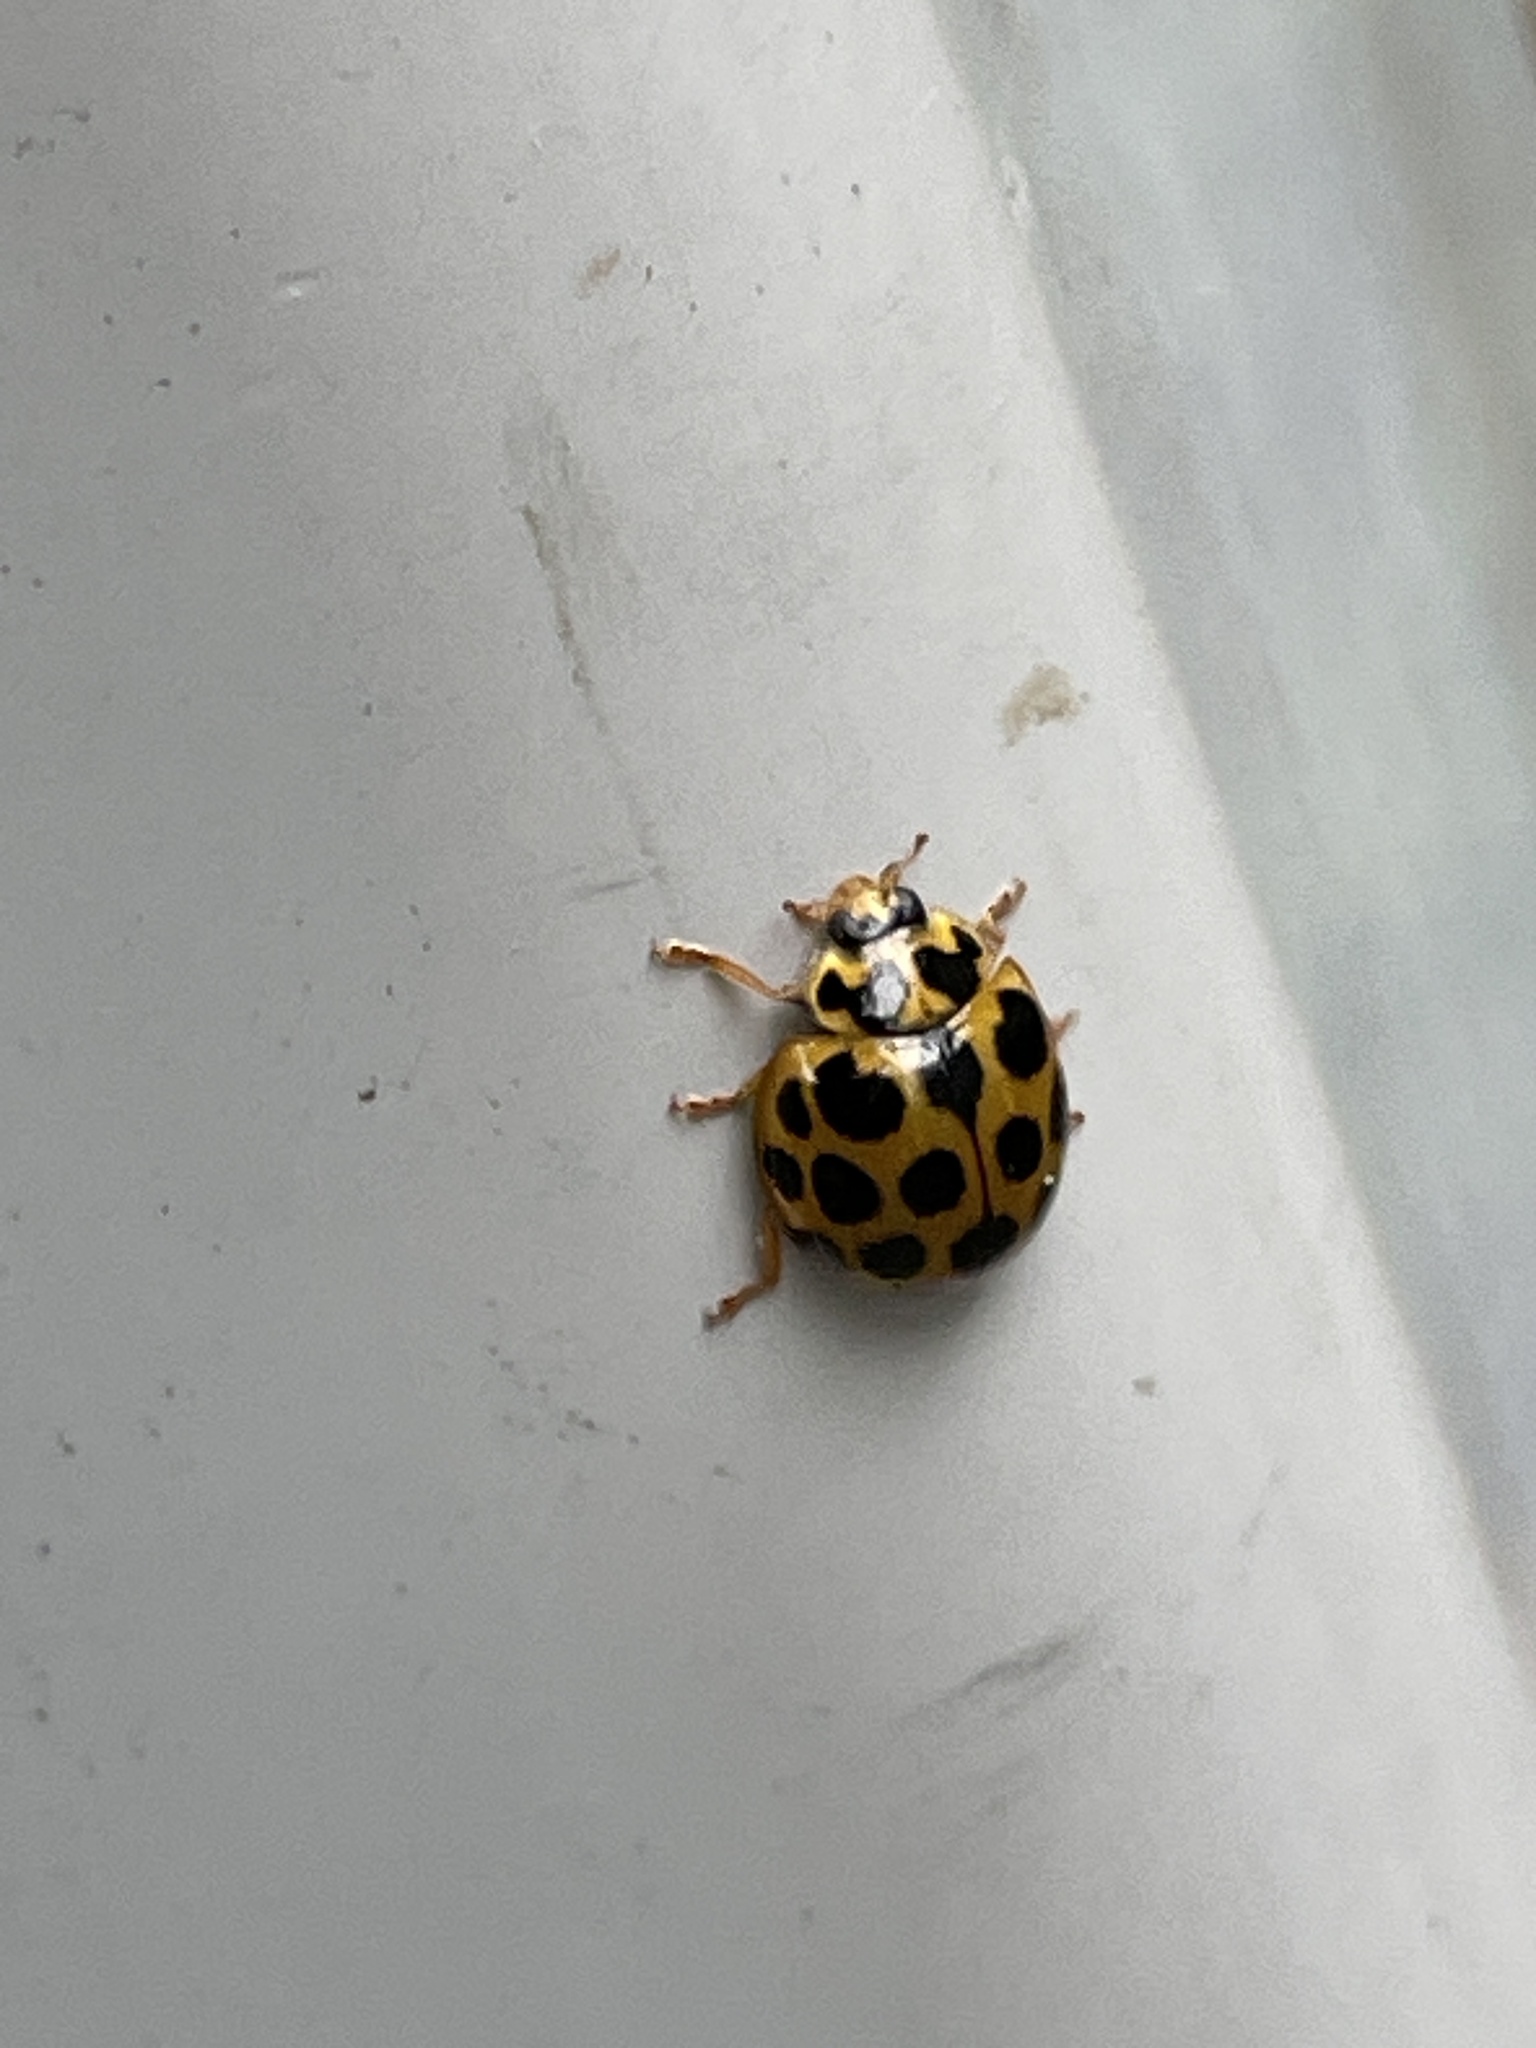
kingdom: Animalia
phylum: Arthropoda
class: Insecta
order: Coleoptera
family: Coccinellidae
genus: Harmonia
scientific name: Harmonia conformis
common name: Common spotted ladybird beetle
